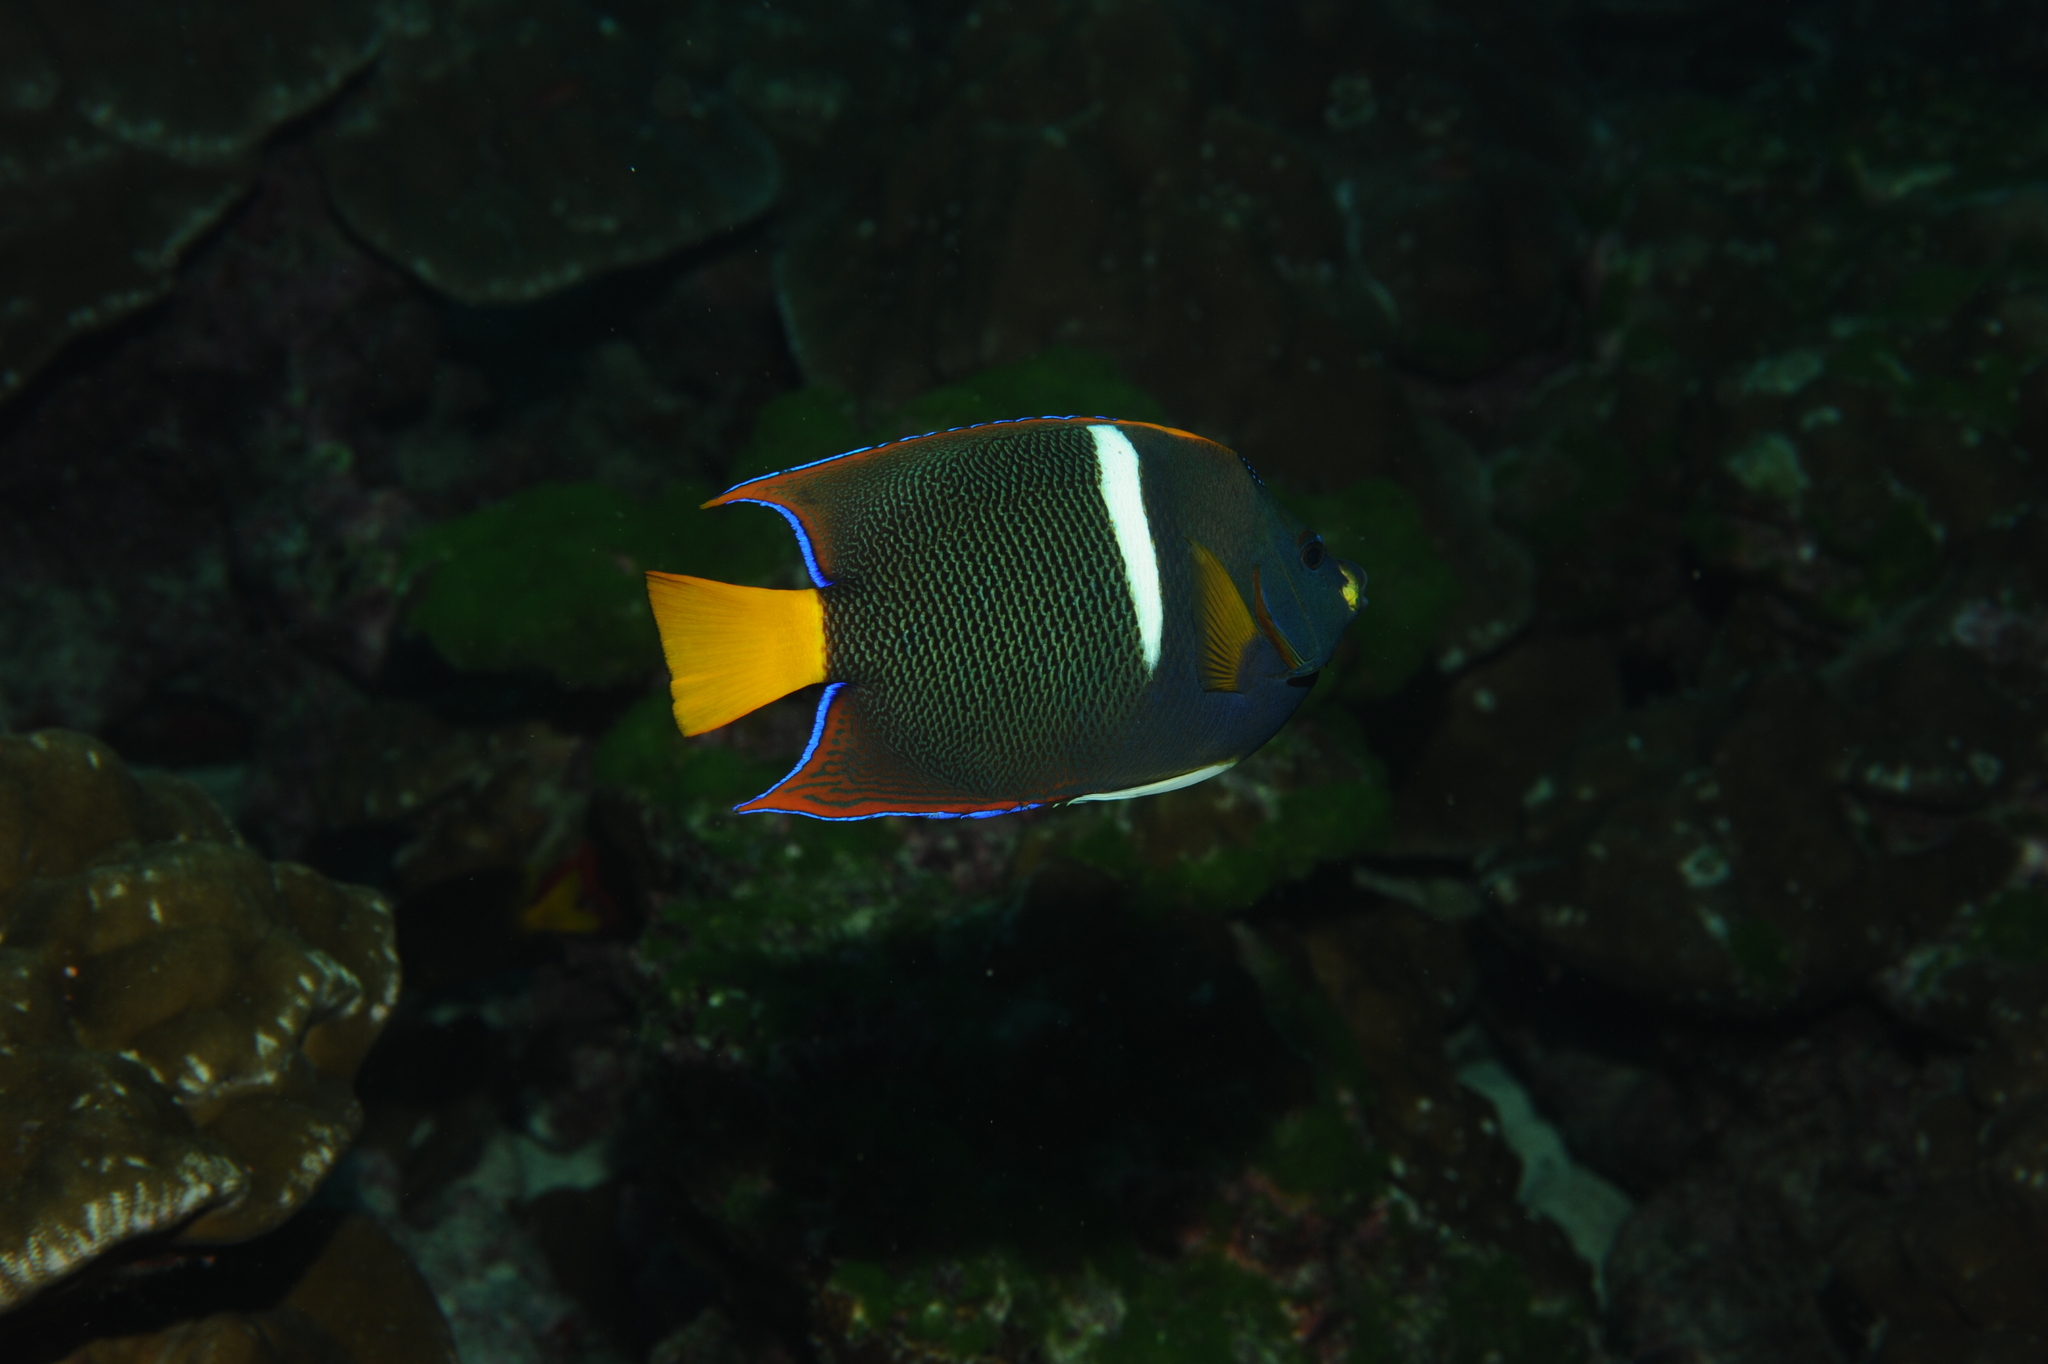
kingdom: Animalia
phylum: Chordata
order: Perciformes
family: Pomacanthidae
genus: Holacanthus
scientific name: Holacanthus passer
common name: King angelfish
